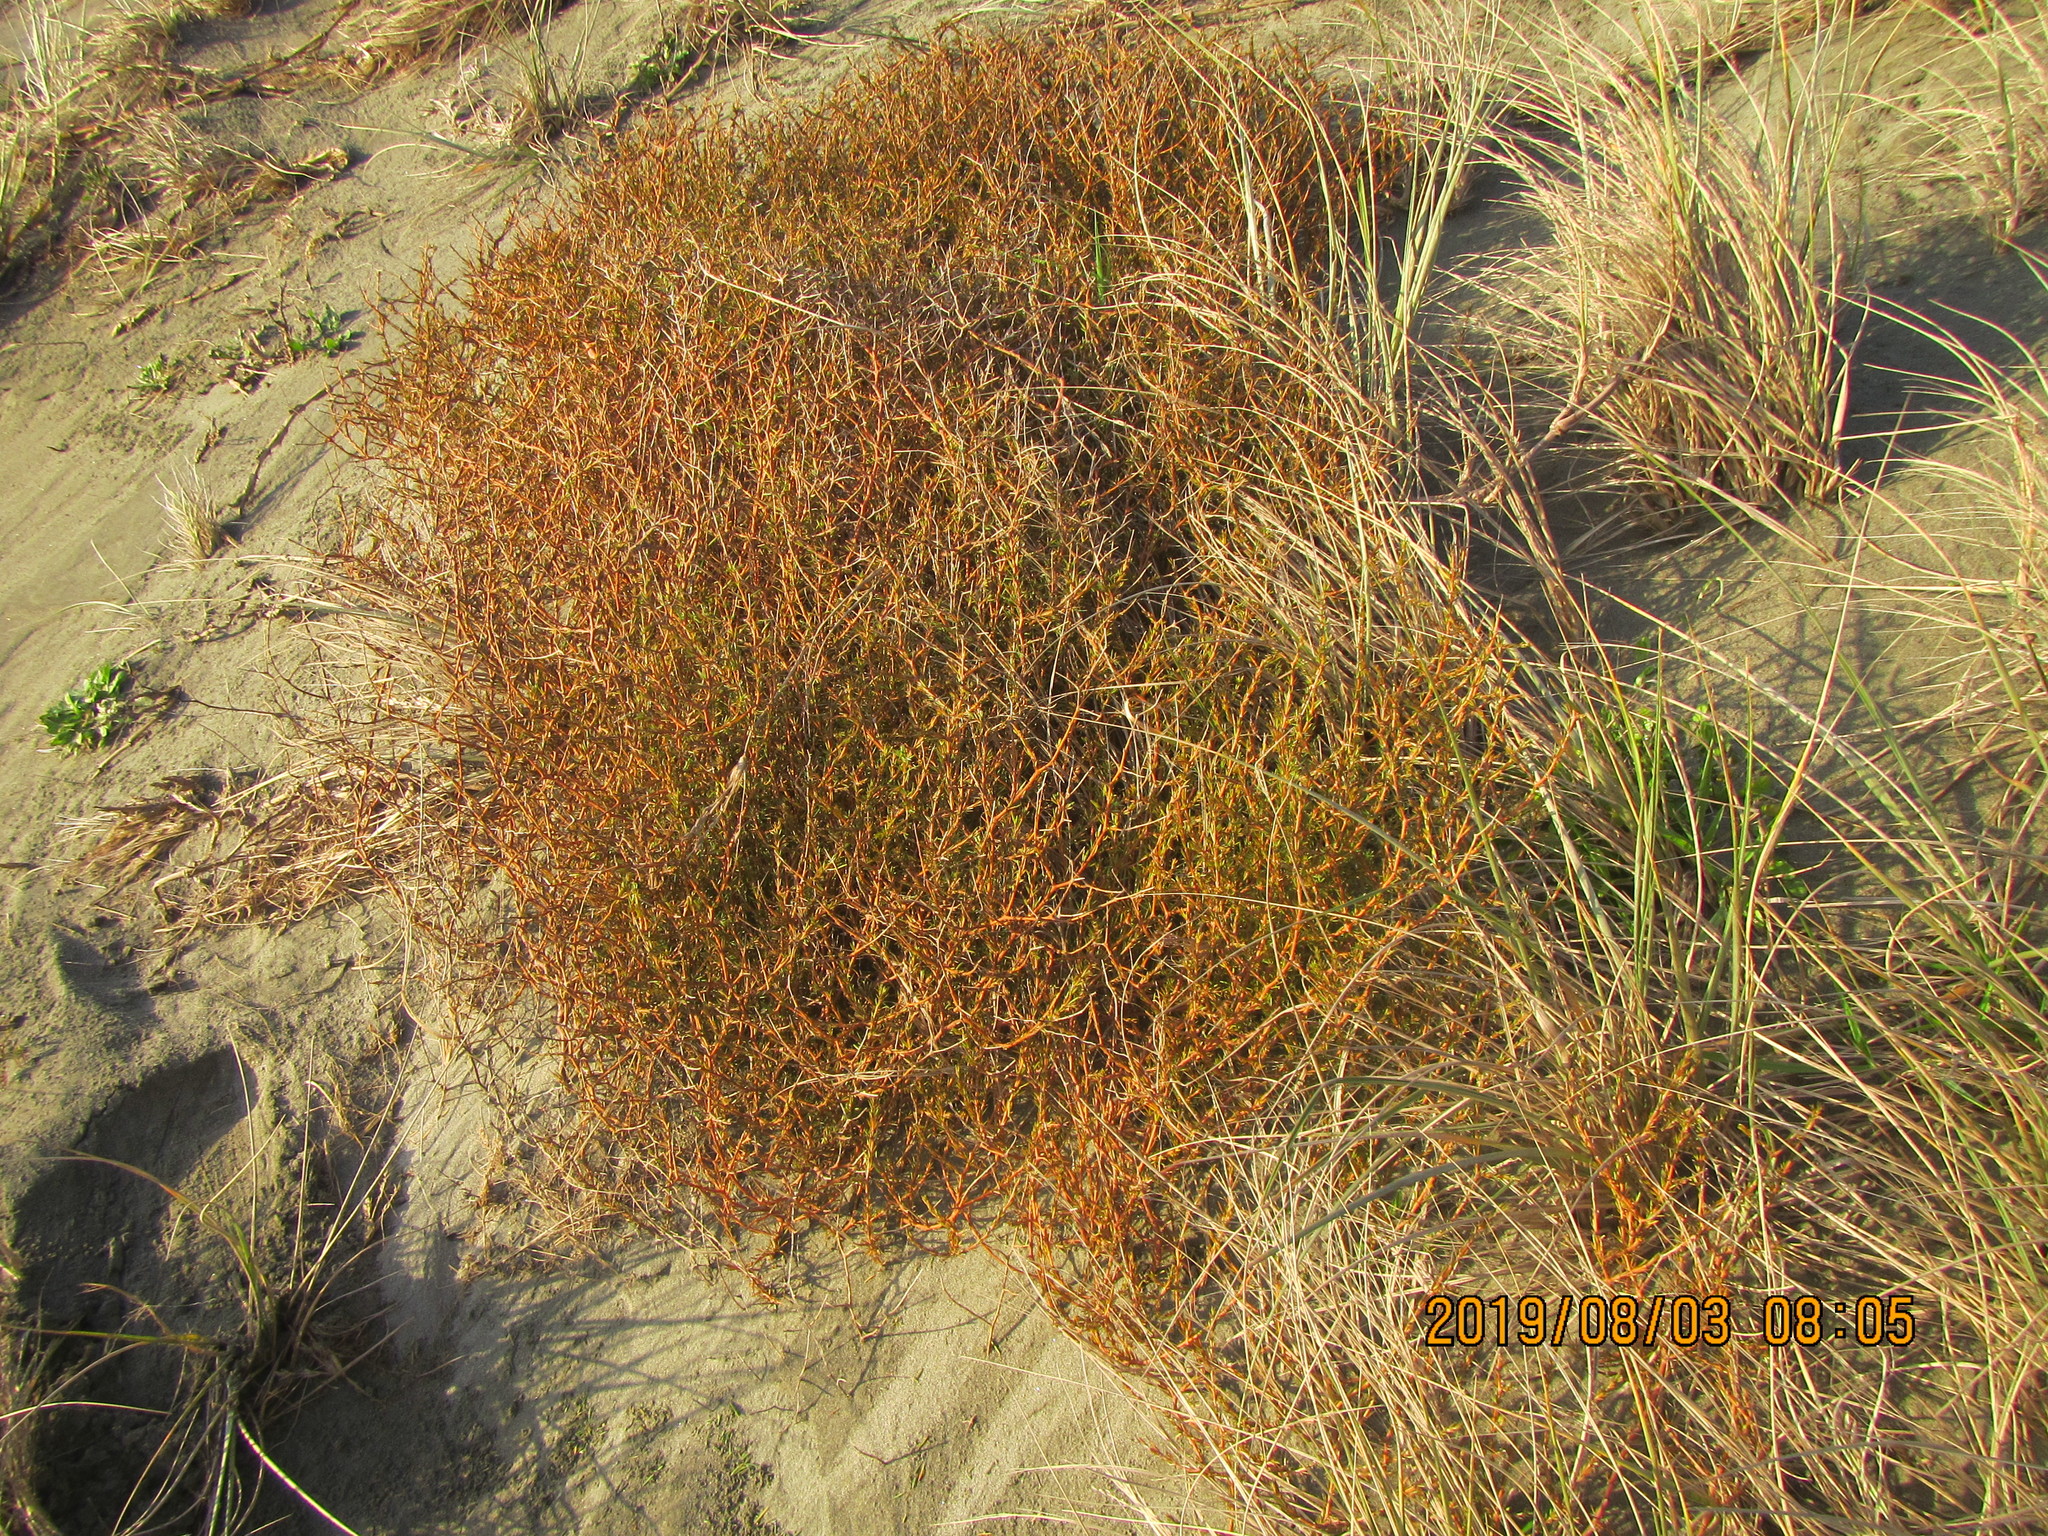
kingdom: Plantae
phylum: Tracheophyta
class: Magnoliopsida
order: Gentianales
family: Rubiaceae
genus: Coprosma
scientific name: Coprosma acerosa
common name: Sand coprosma
